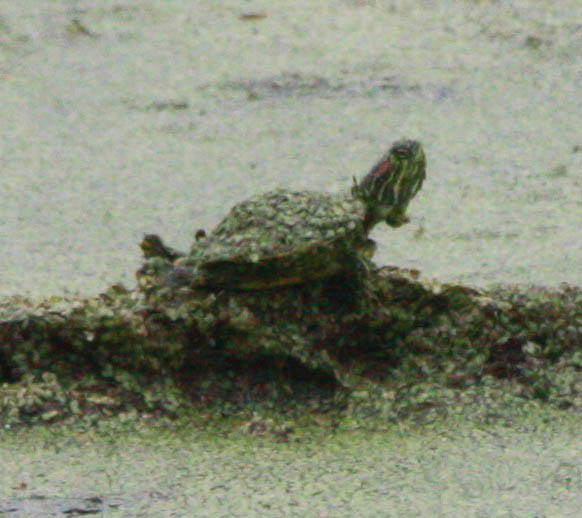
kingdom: Animalia
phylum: Chordata
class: Testudines
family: Emydidae
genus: Trachemys
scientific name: Trachemys scripta
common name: Slider
